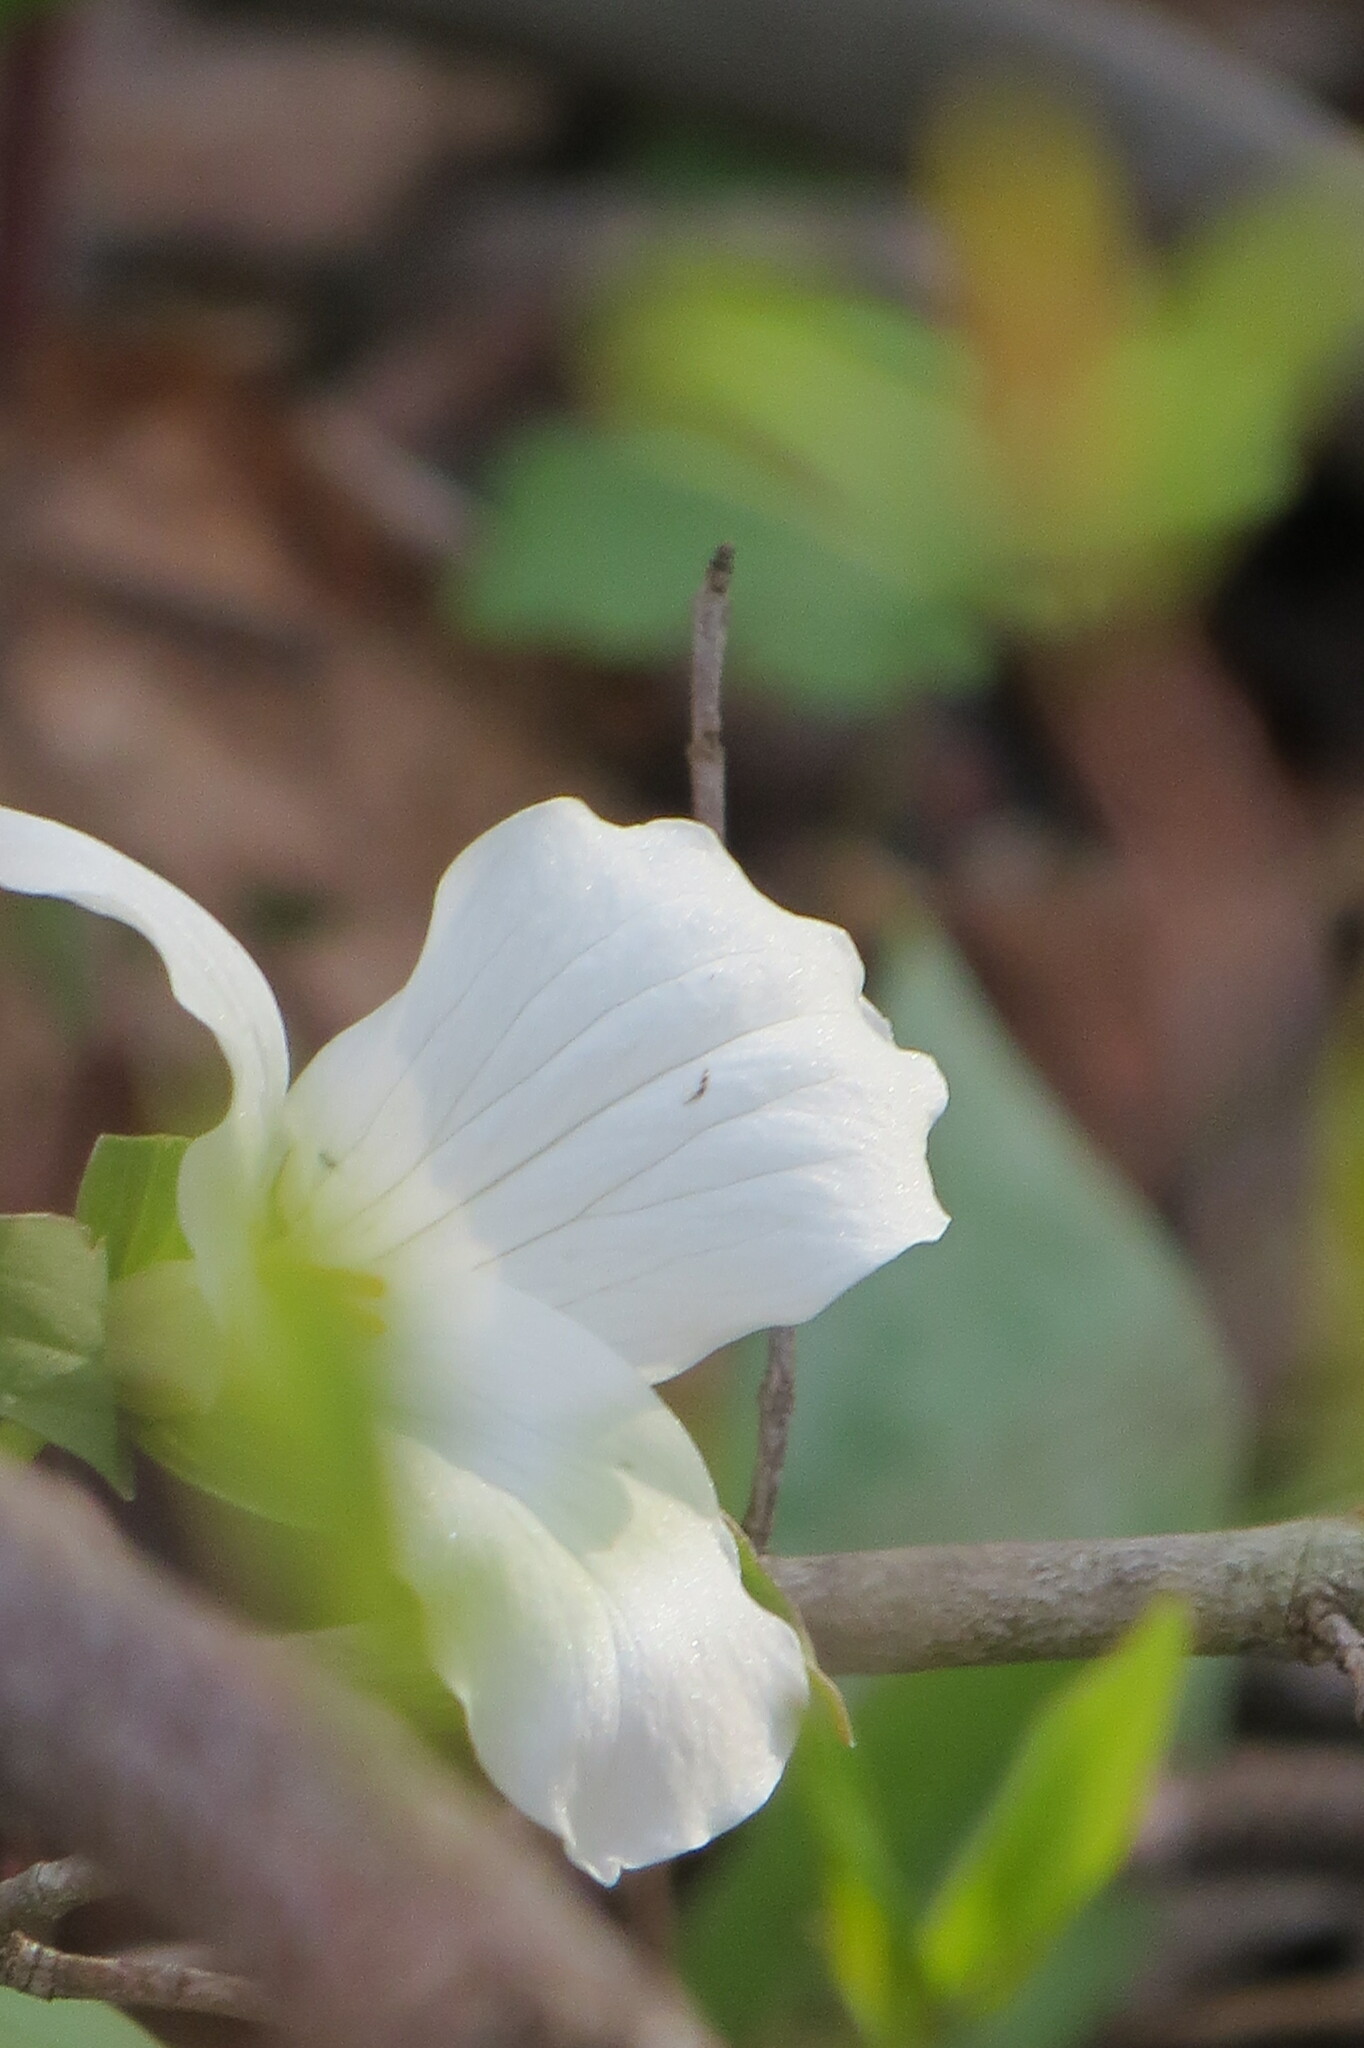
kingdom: Plantae
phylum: Tracheophyta
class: Liliopsida
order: Liliales
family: Melanthiaceae
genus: Trillium
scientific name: Trillium grandiflorum
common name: Great white trillium
